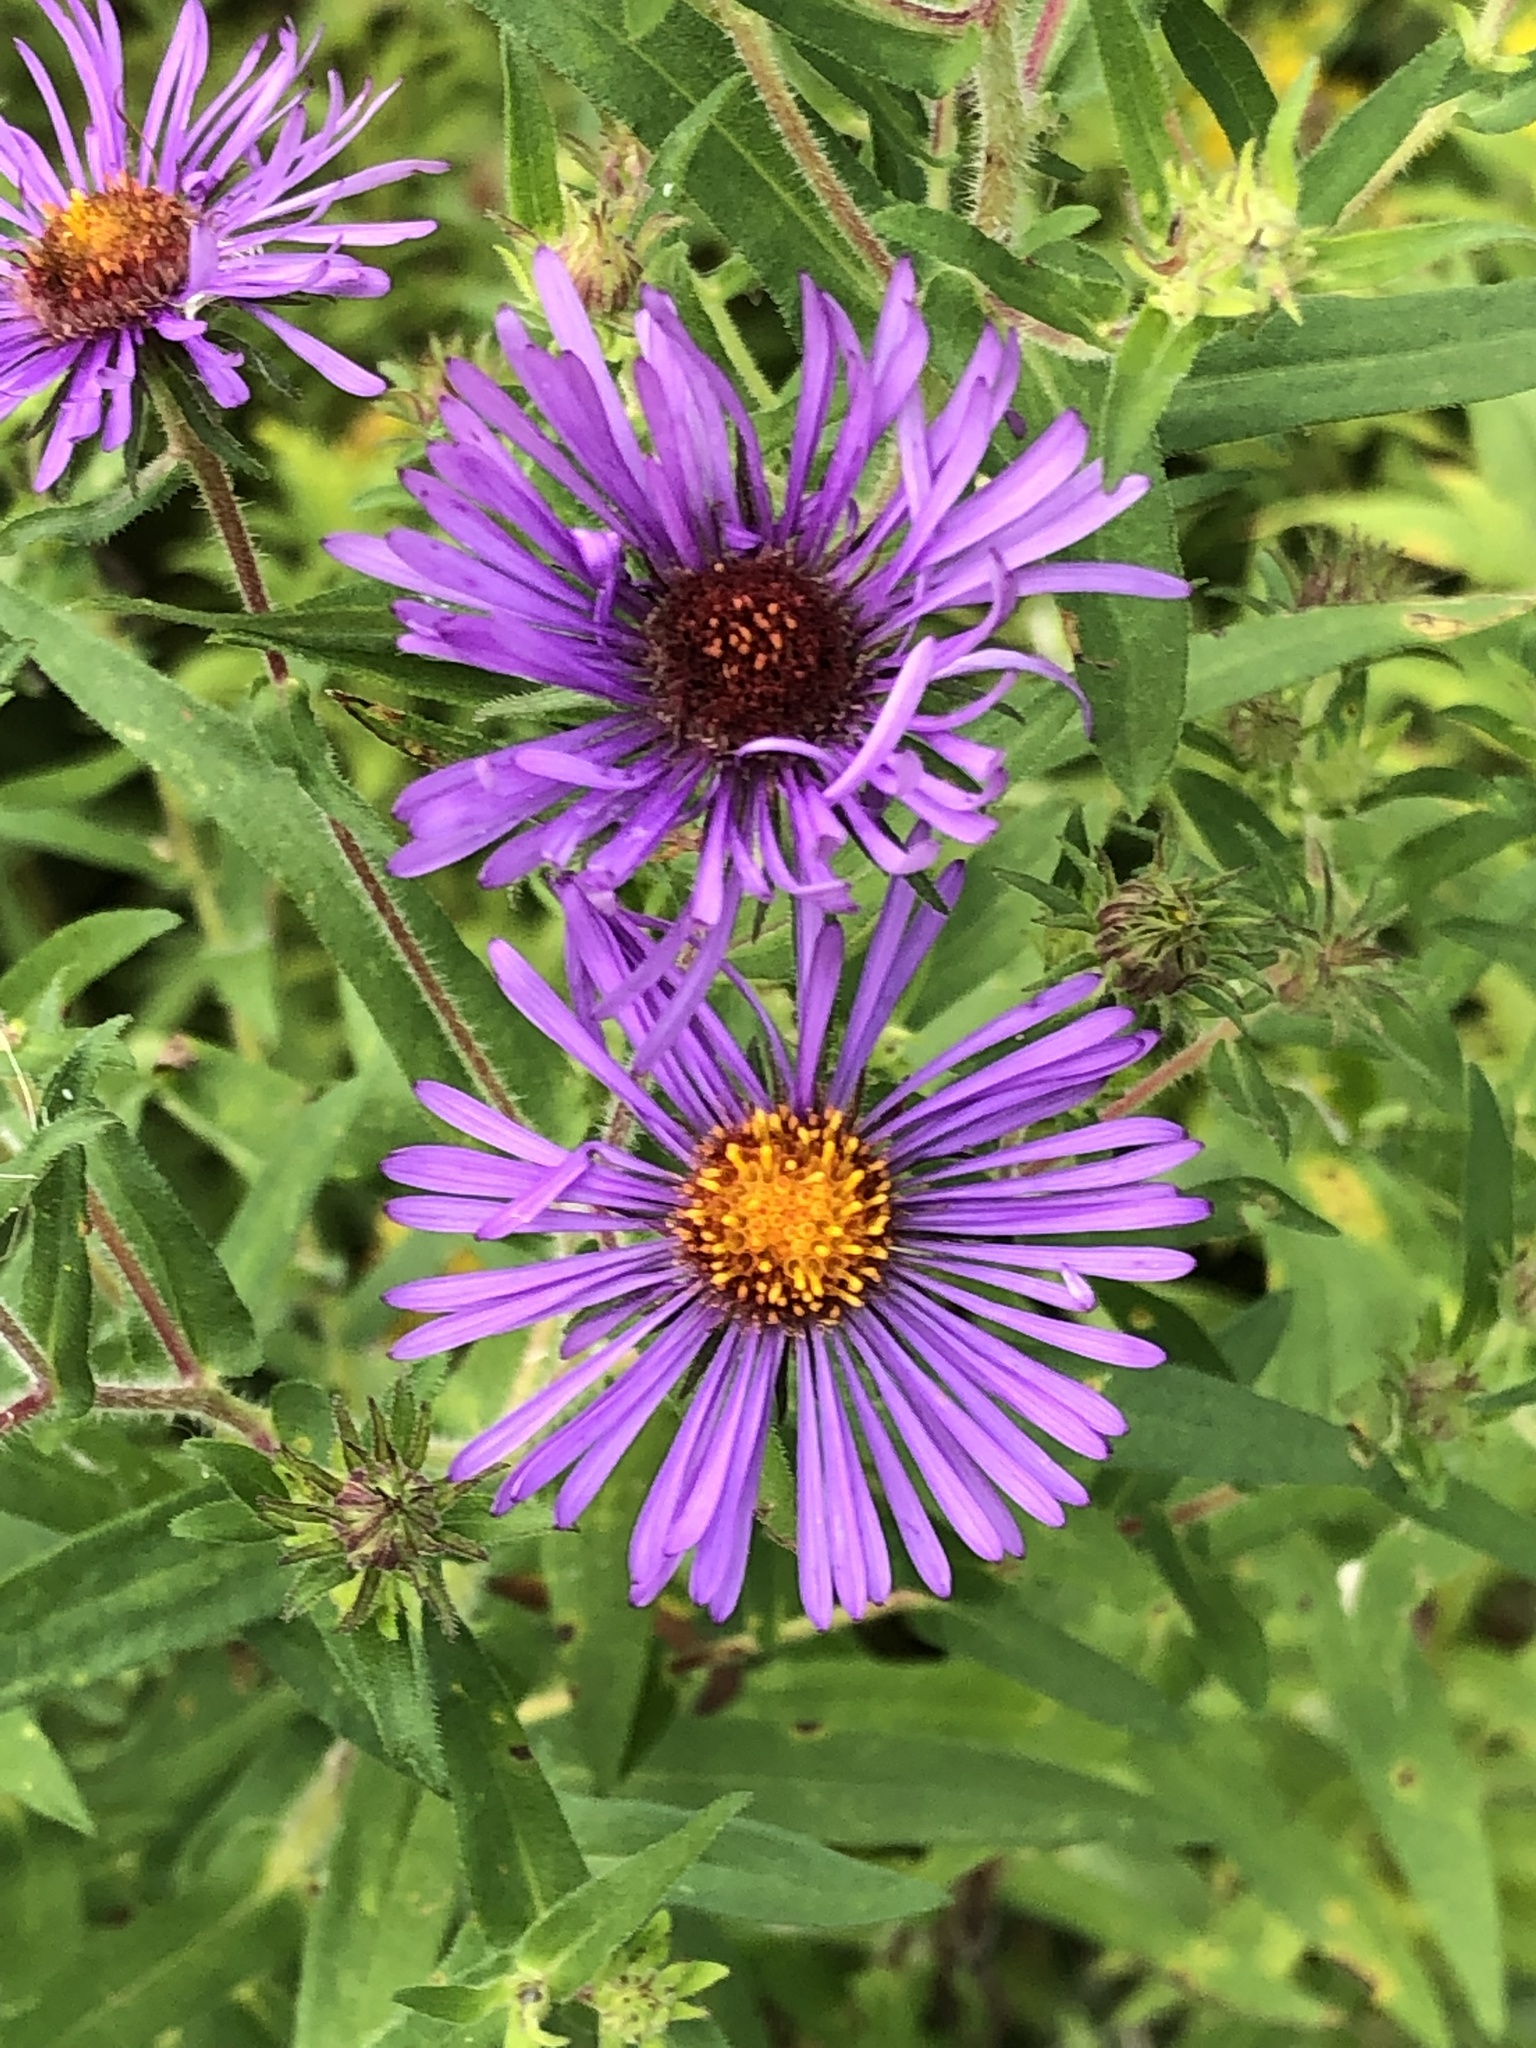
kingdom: Plantae
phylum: Tracheophyta
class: Magnoliopsida
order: Asterales
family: Asteraceae
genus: Symphyotrichum
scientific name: Symphyotrichum novae-angliae
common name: Michaelmas daisy
